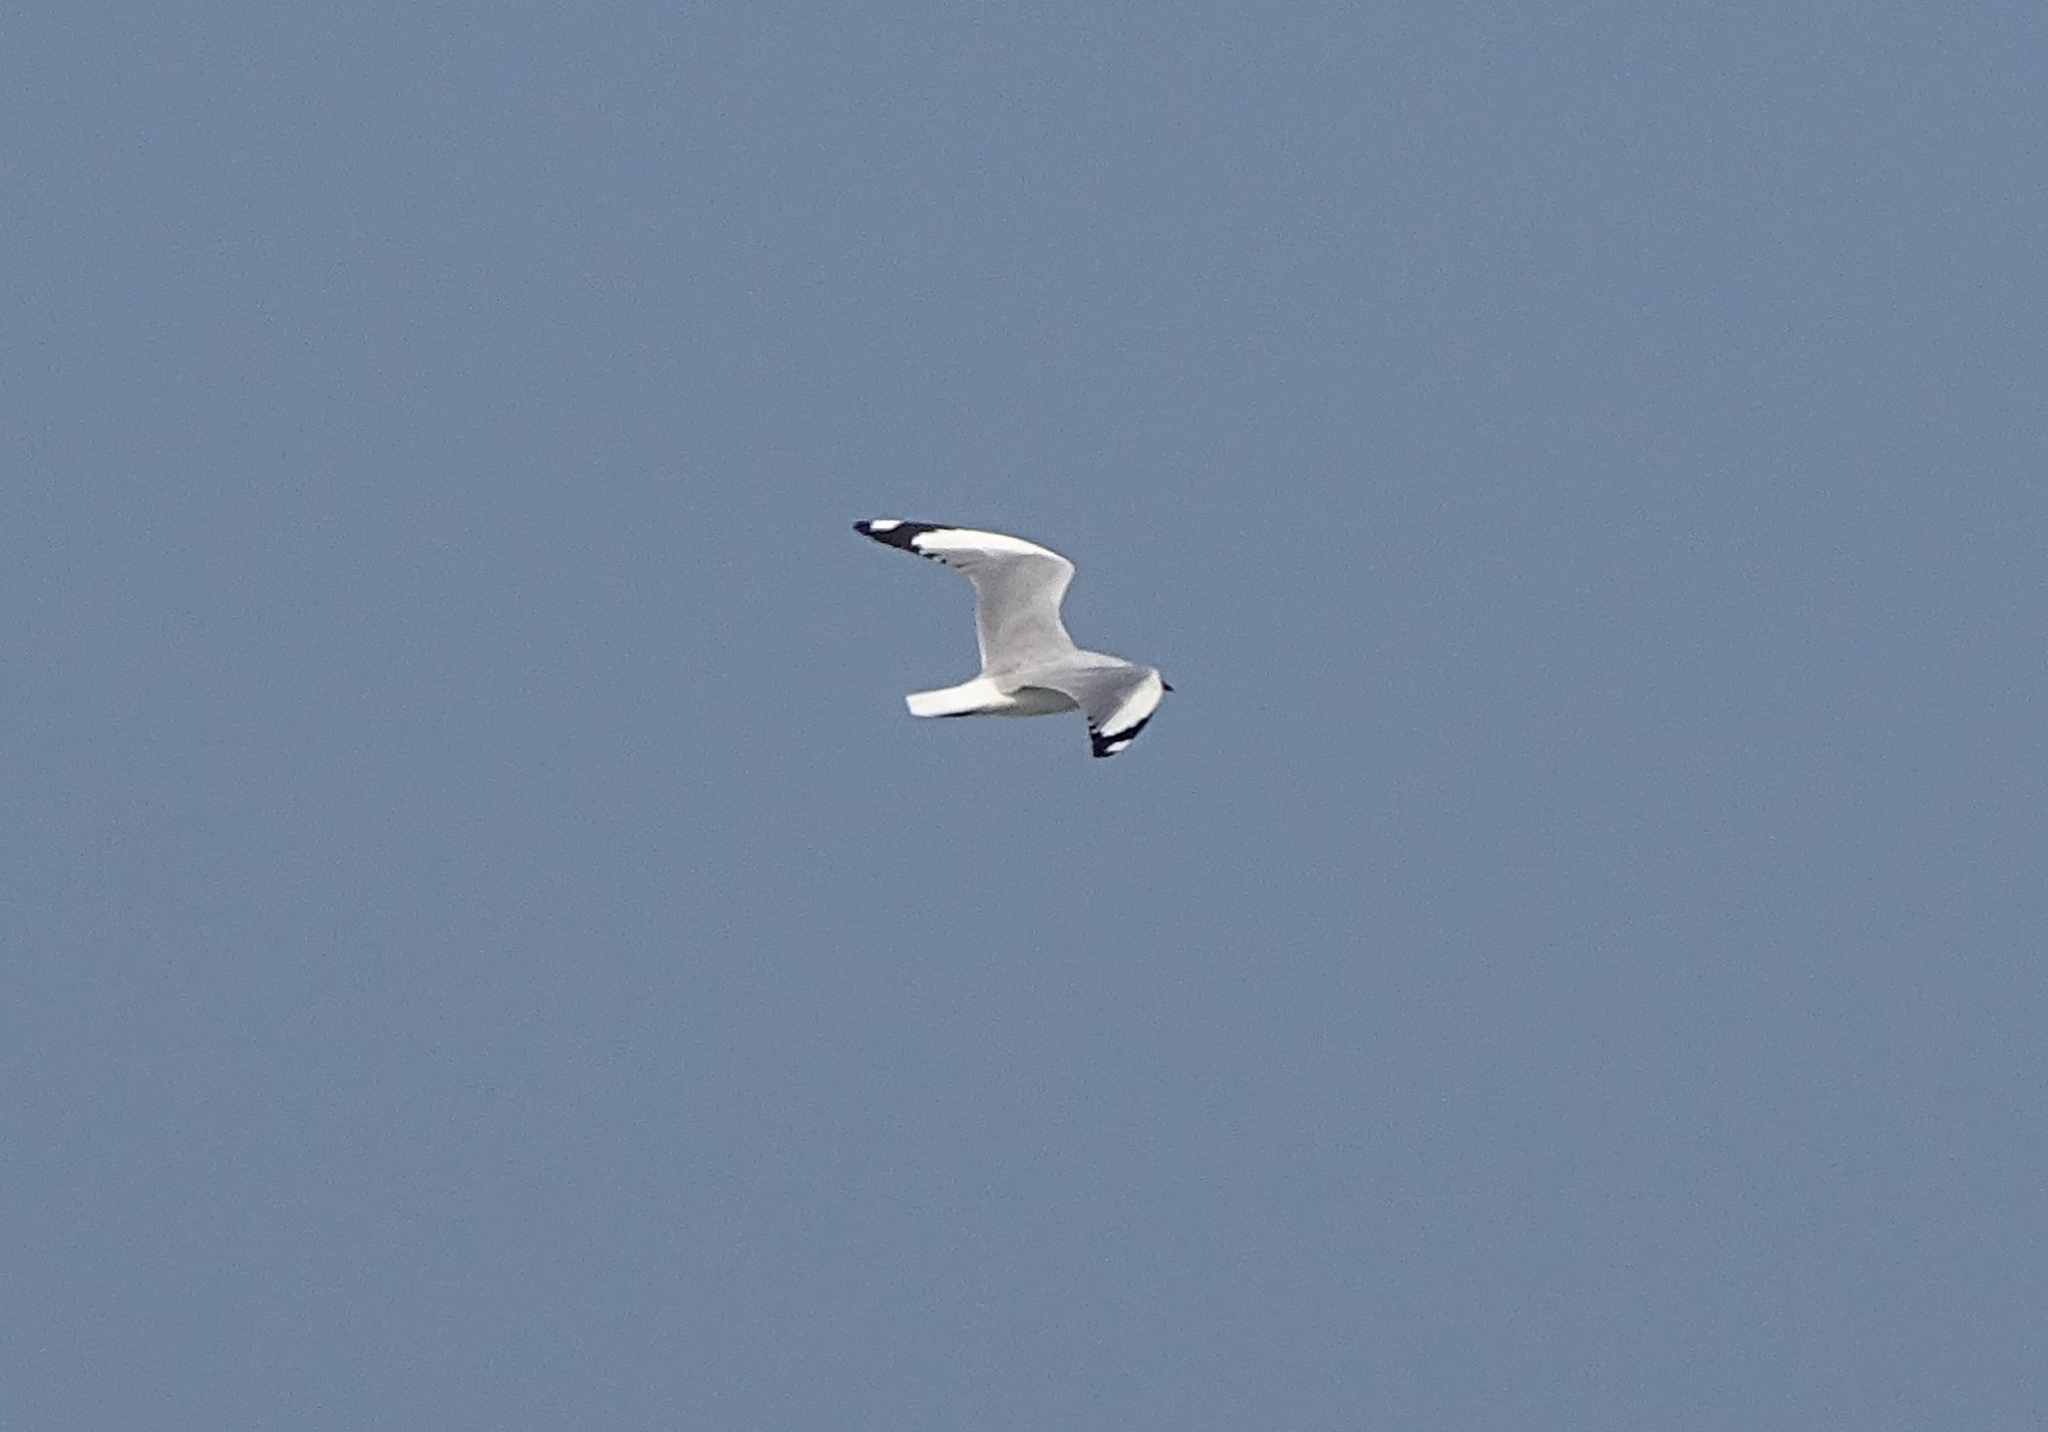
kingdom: Animalia
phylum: Chordata
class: Aves
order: Charadriiformes
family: Laridae
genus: Chroicocephalus
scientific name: Chroicocephalus brunnicephalus
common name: Brown-headed gull
